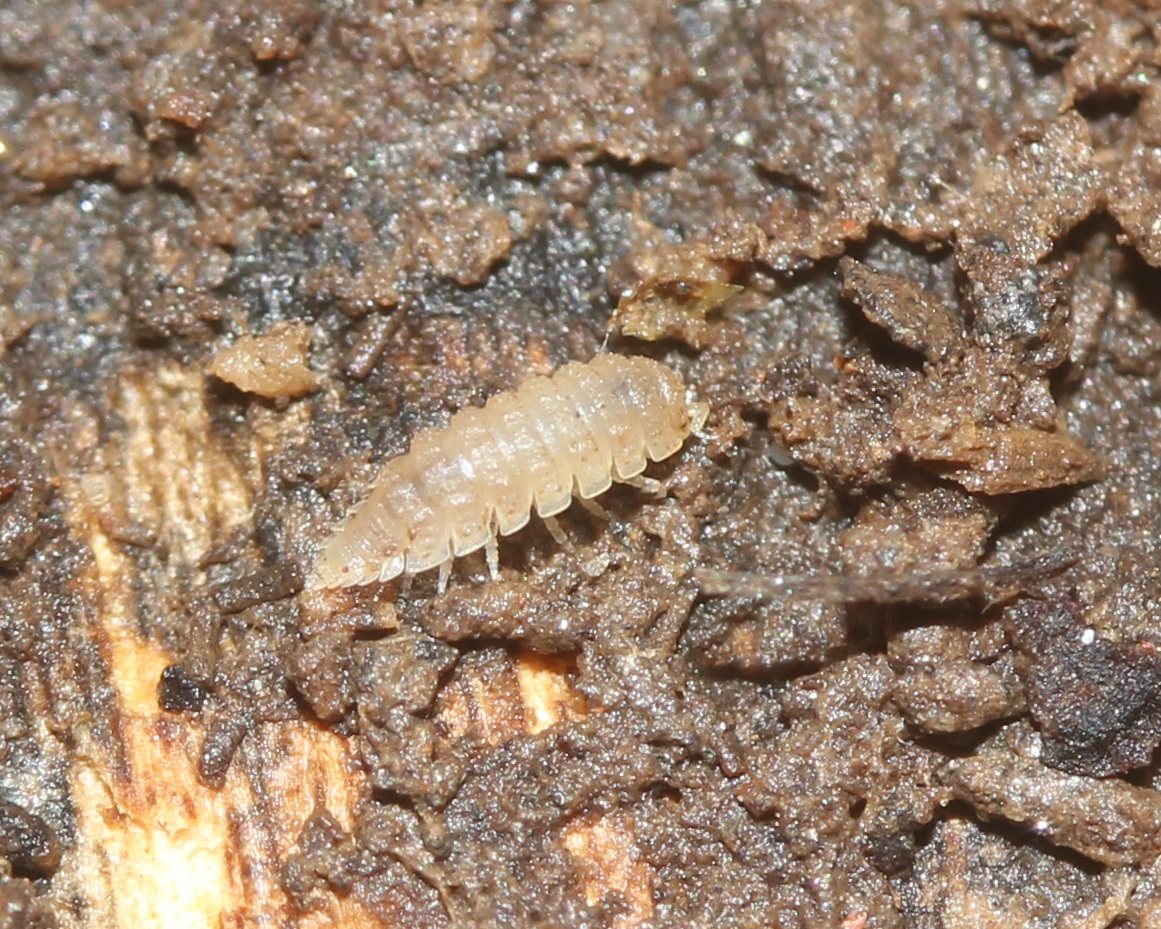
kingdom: Animalia
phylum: Arthropoda
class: Malacostraca
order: Isopoda
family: Trichoniscidae
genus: Haplophthalmus
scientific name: Haplophthalmus danicus
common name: Pillbug
